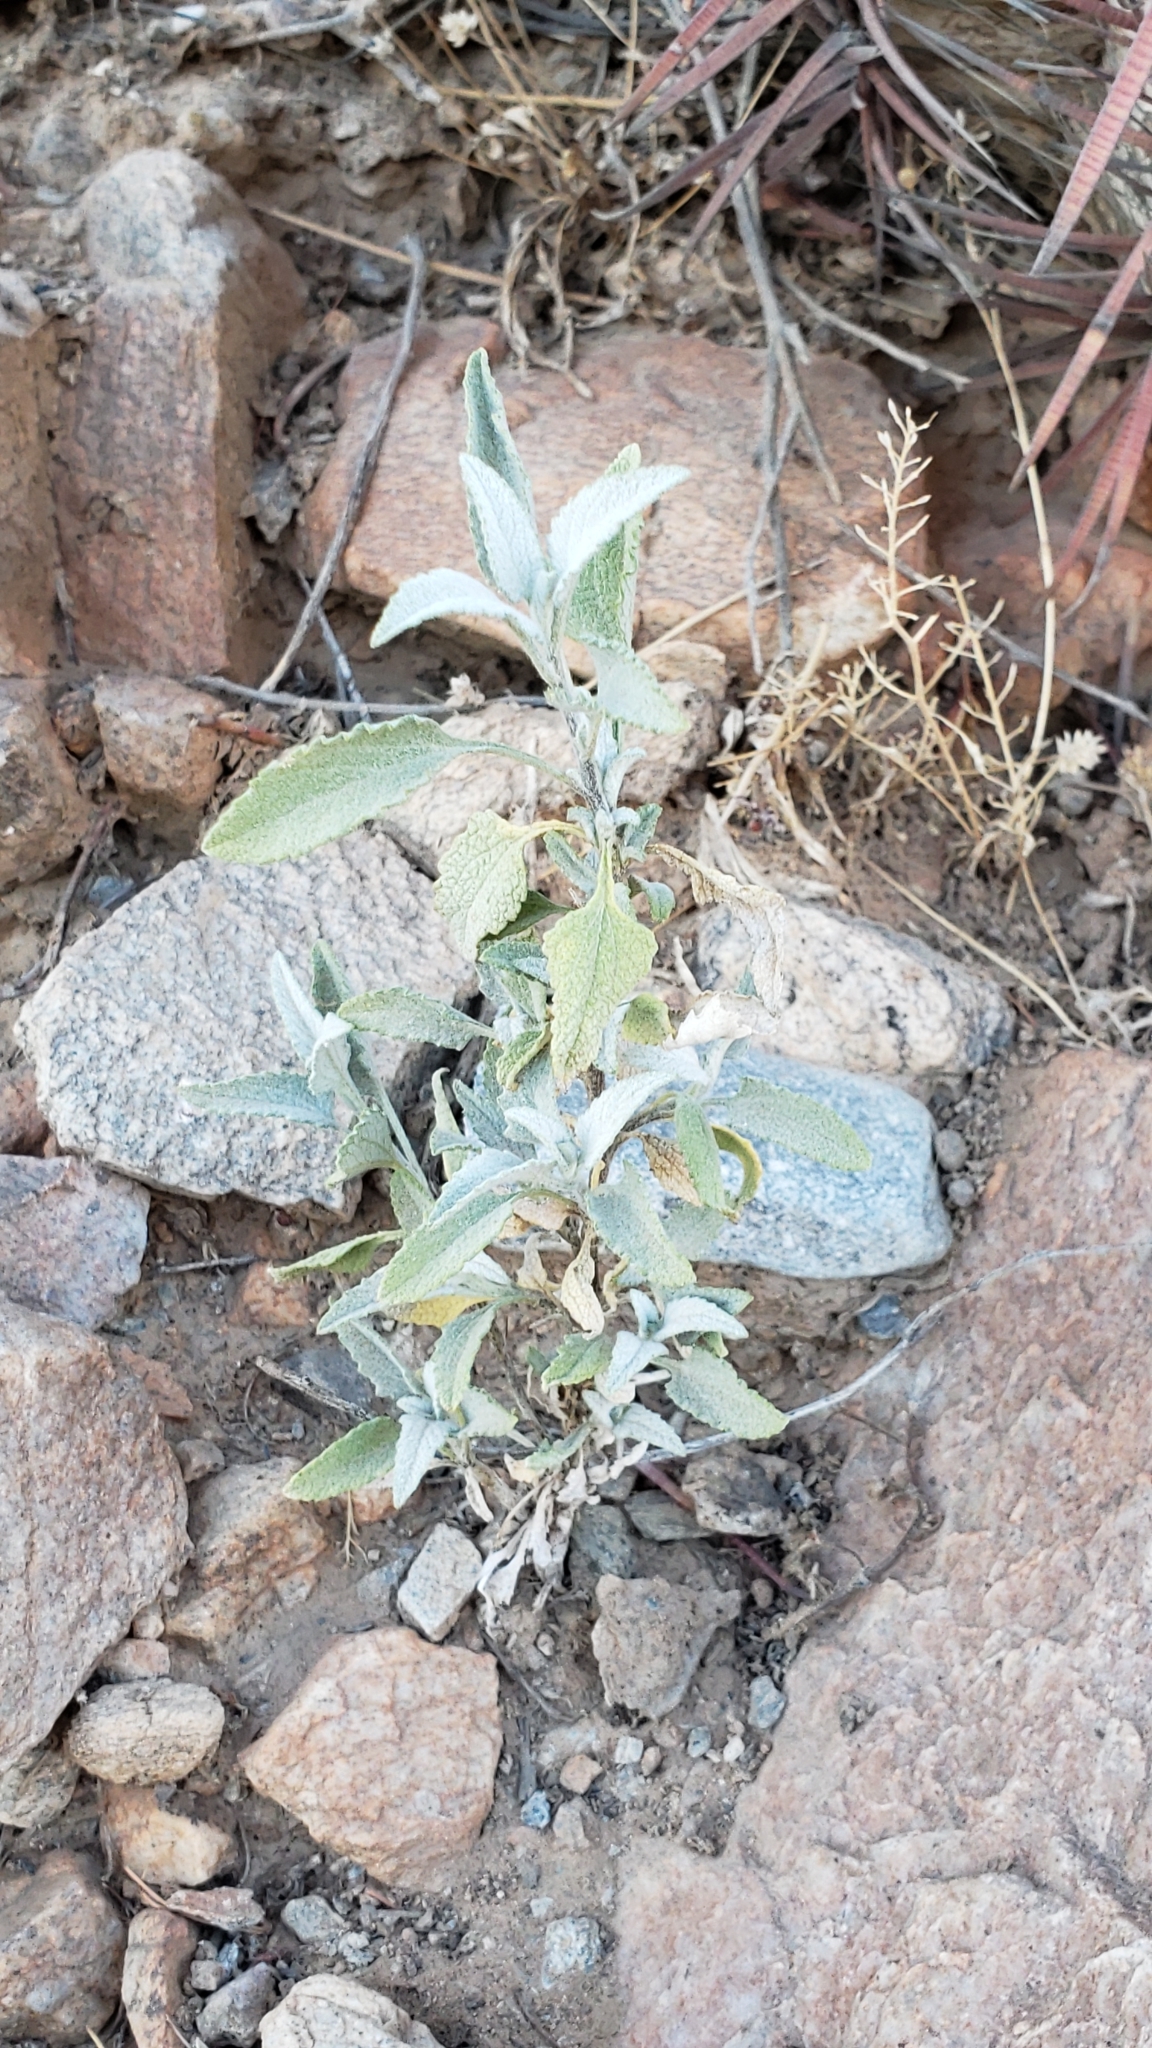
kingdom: Plantae
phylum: Tracheophyta
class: Magnoliopsida
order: Asterales
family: Asteraceae
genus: Ambrosia
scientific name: Ambrosia deltoidea
